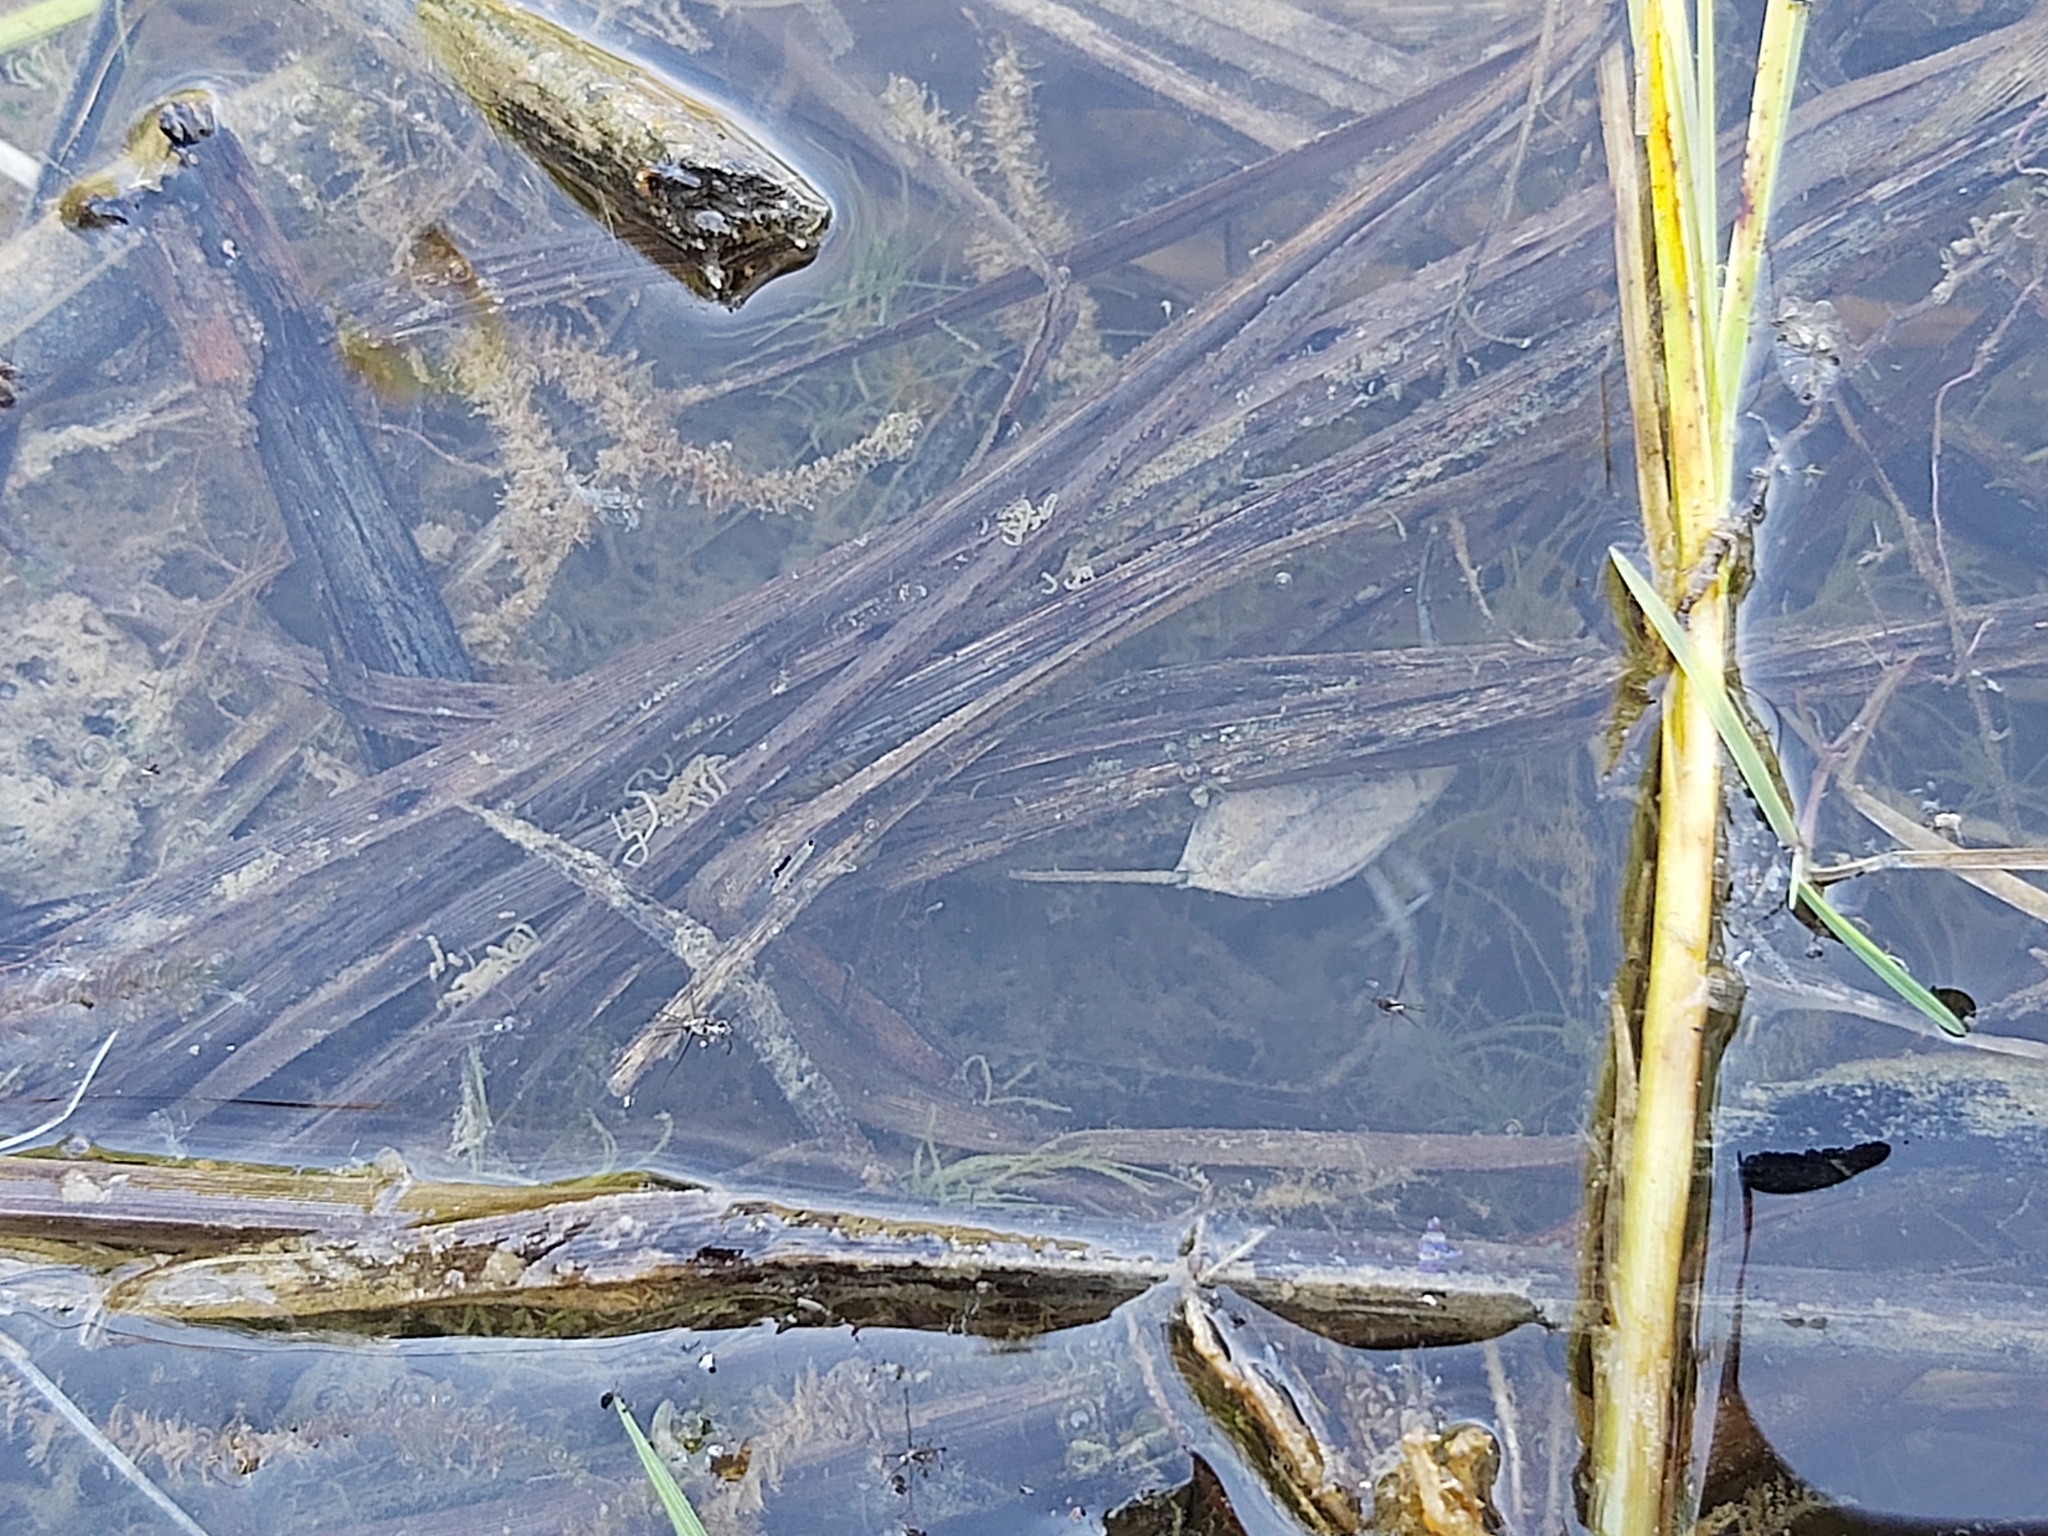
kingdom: Animalia
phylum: Arthropoda
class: Insecta
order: Hemiptera
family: Nepidae
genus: Nepa
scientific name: Nepa cinerea
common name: Water scorpion
